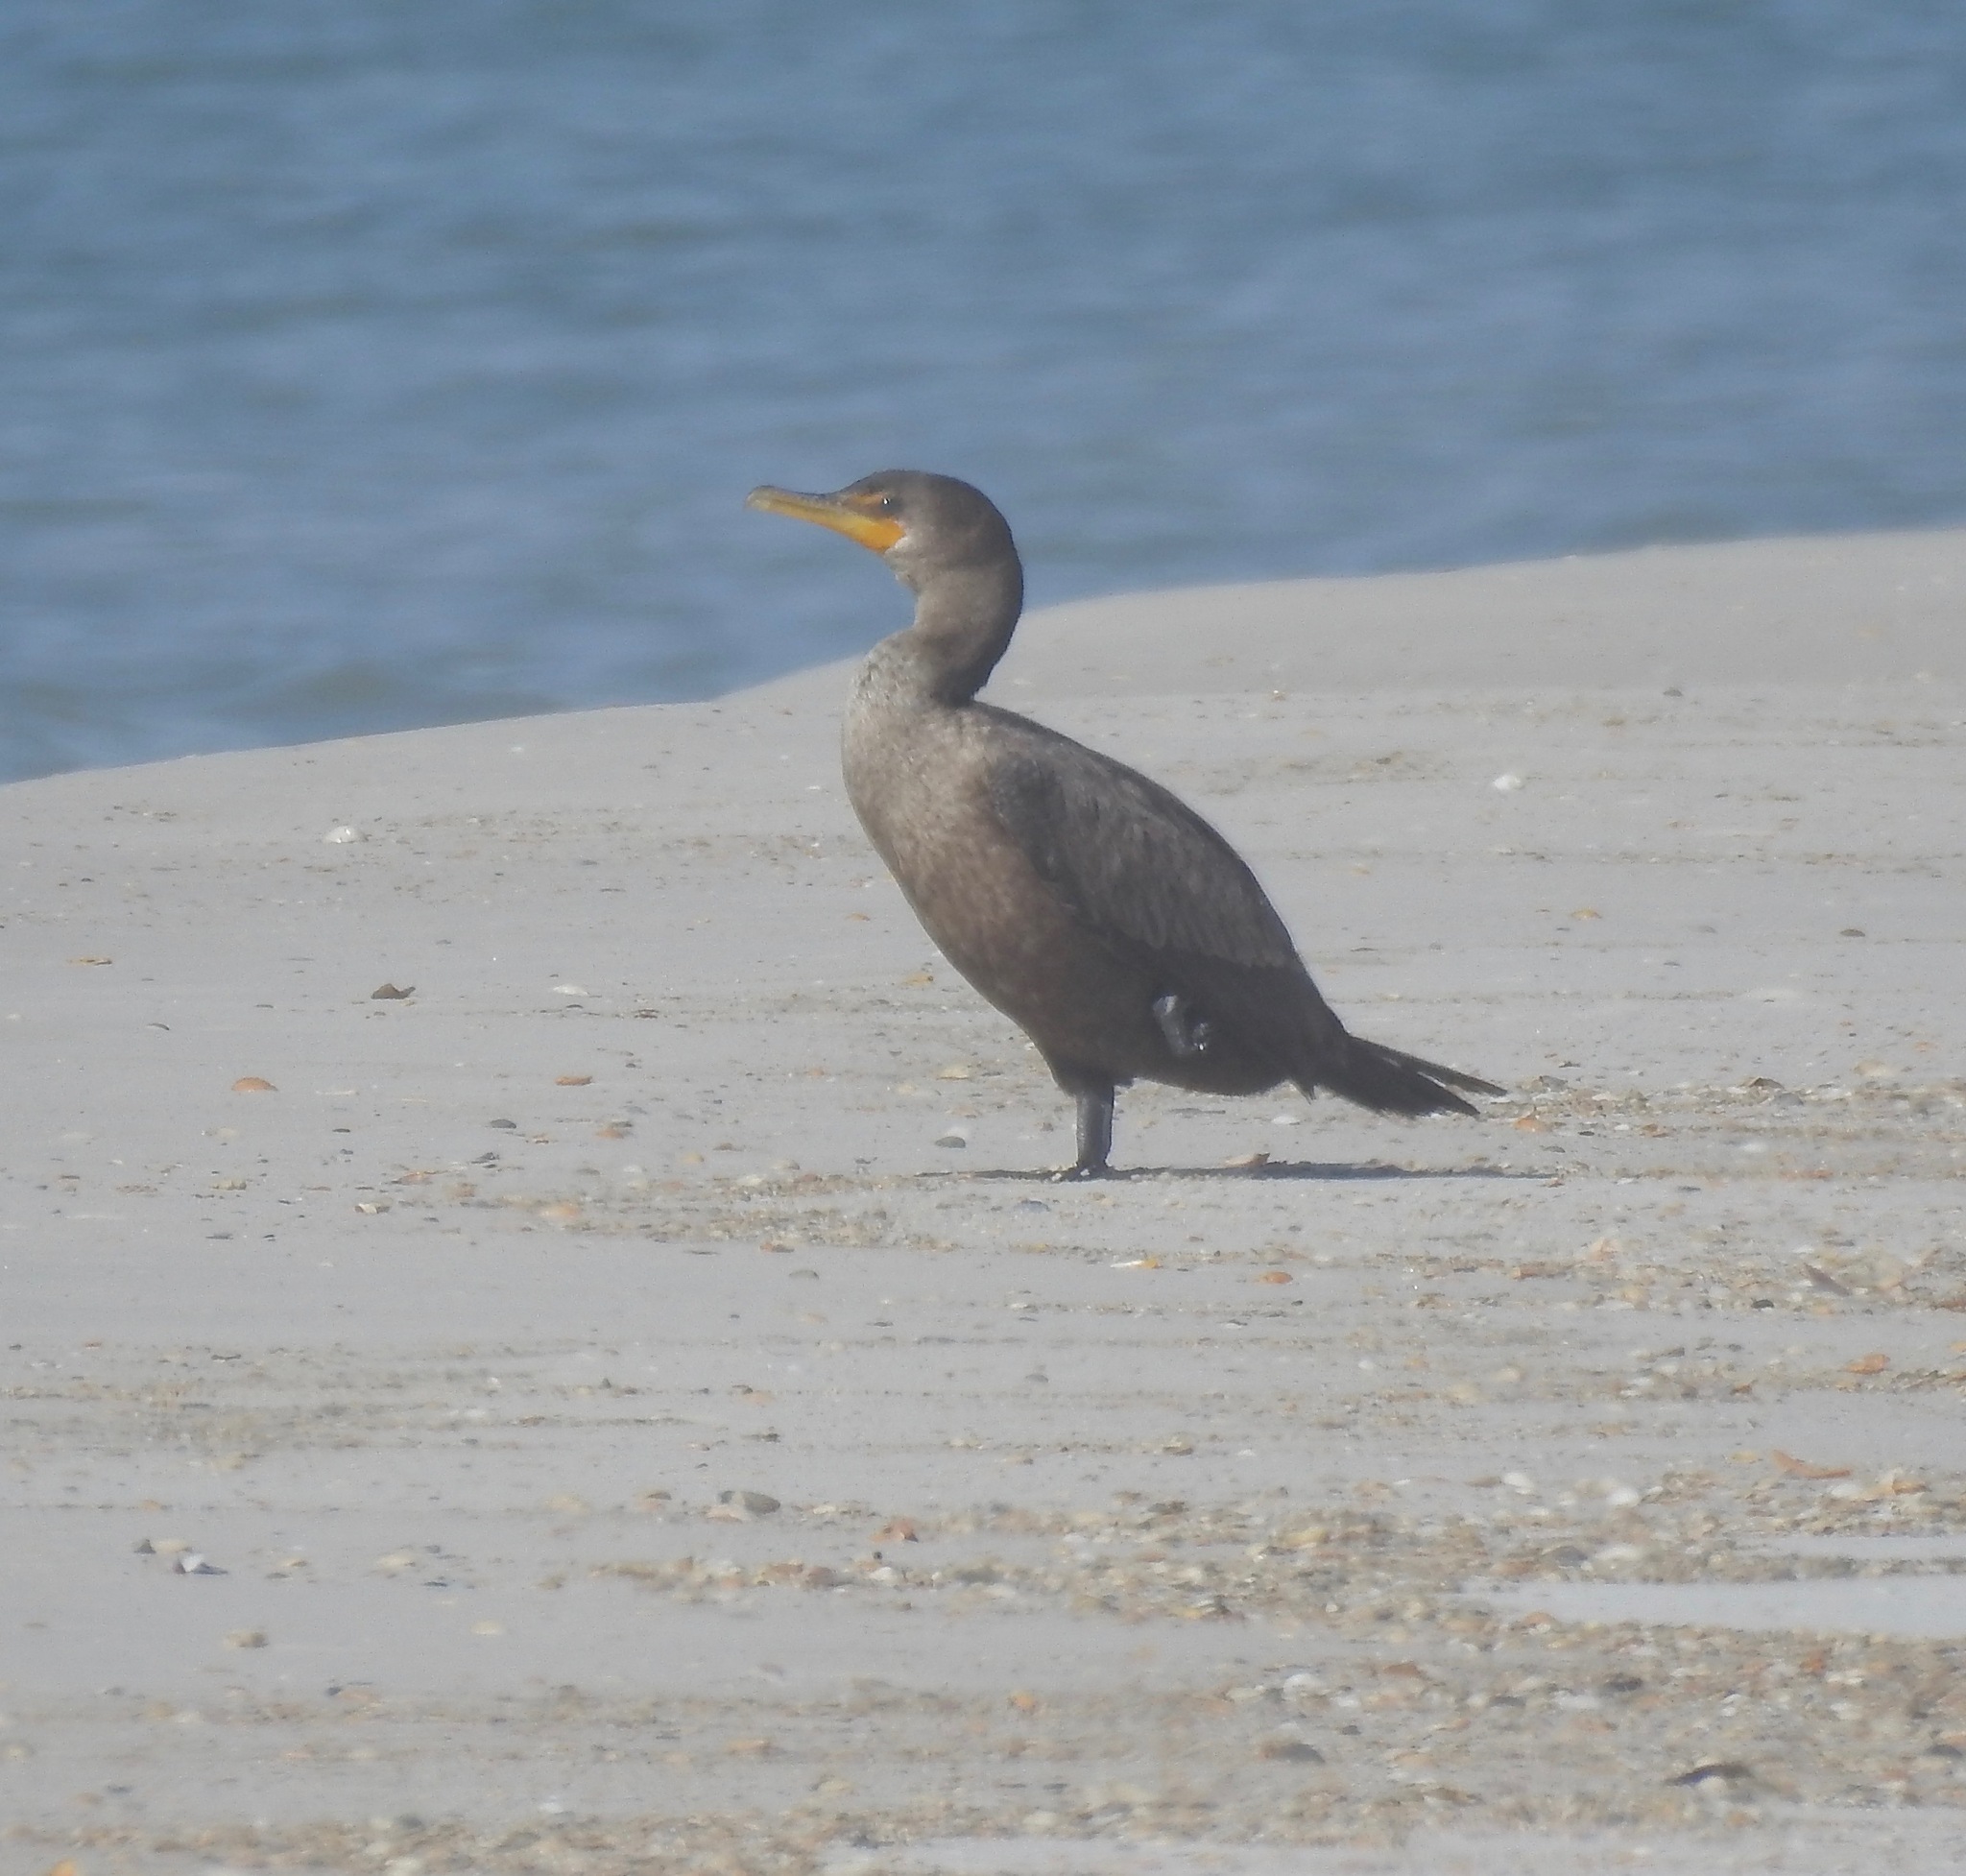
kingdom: Animalia
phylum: Chordata
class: Aves
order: Suliformes
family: Phalacrocoracidae
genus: Phalacrocorax
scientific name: Phalacrocorax auritus
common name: Double-crested cormorant
